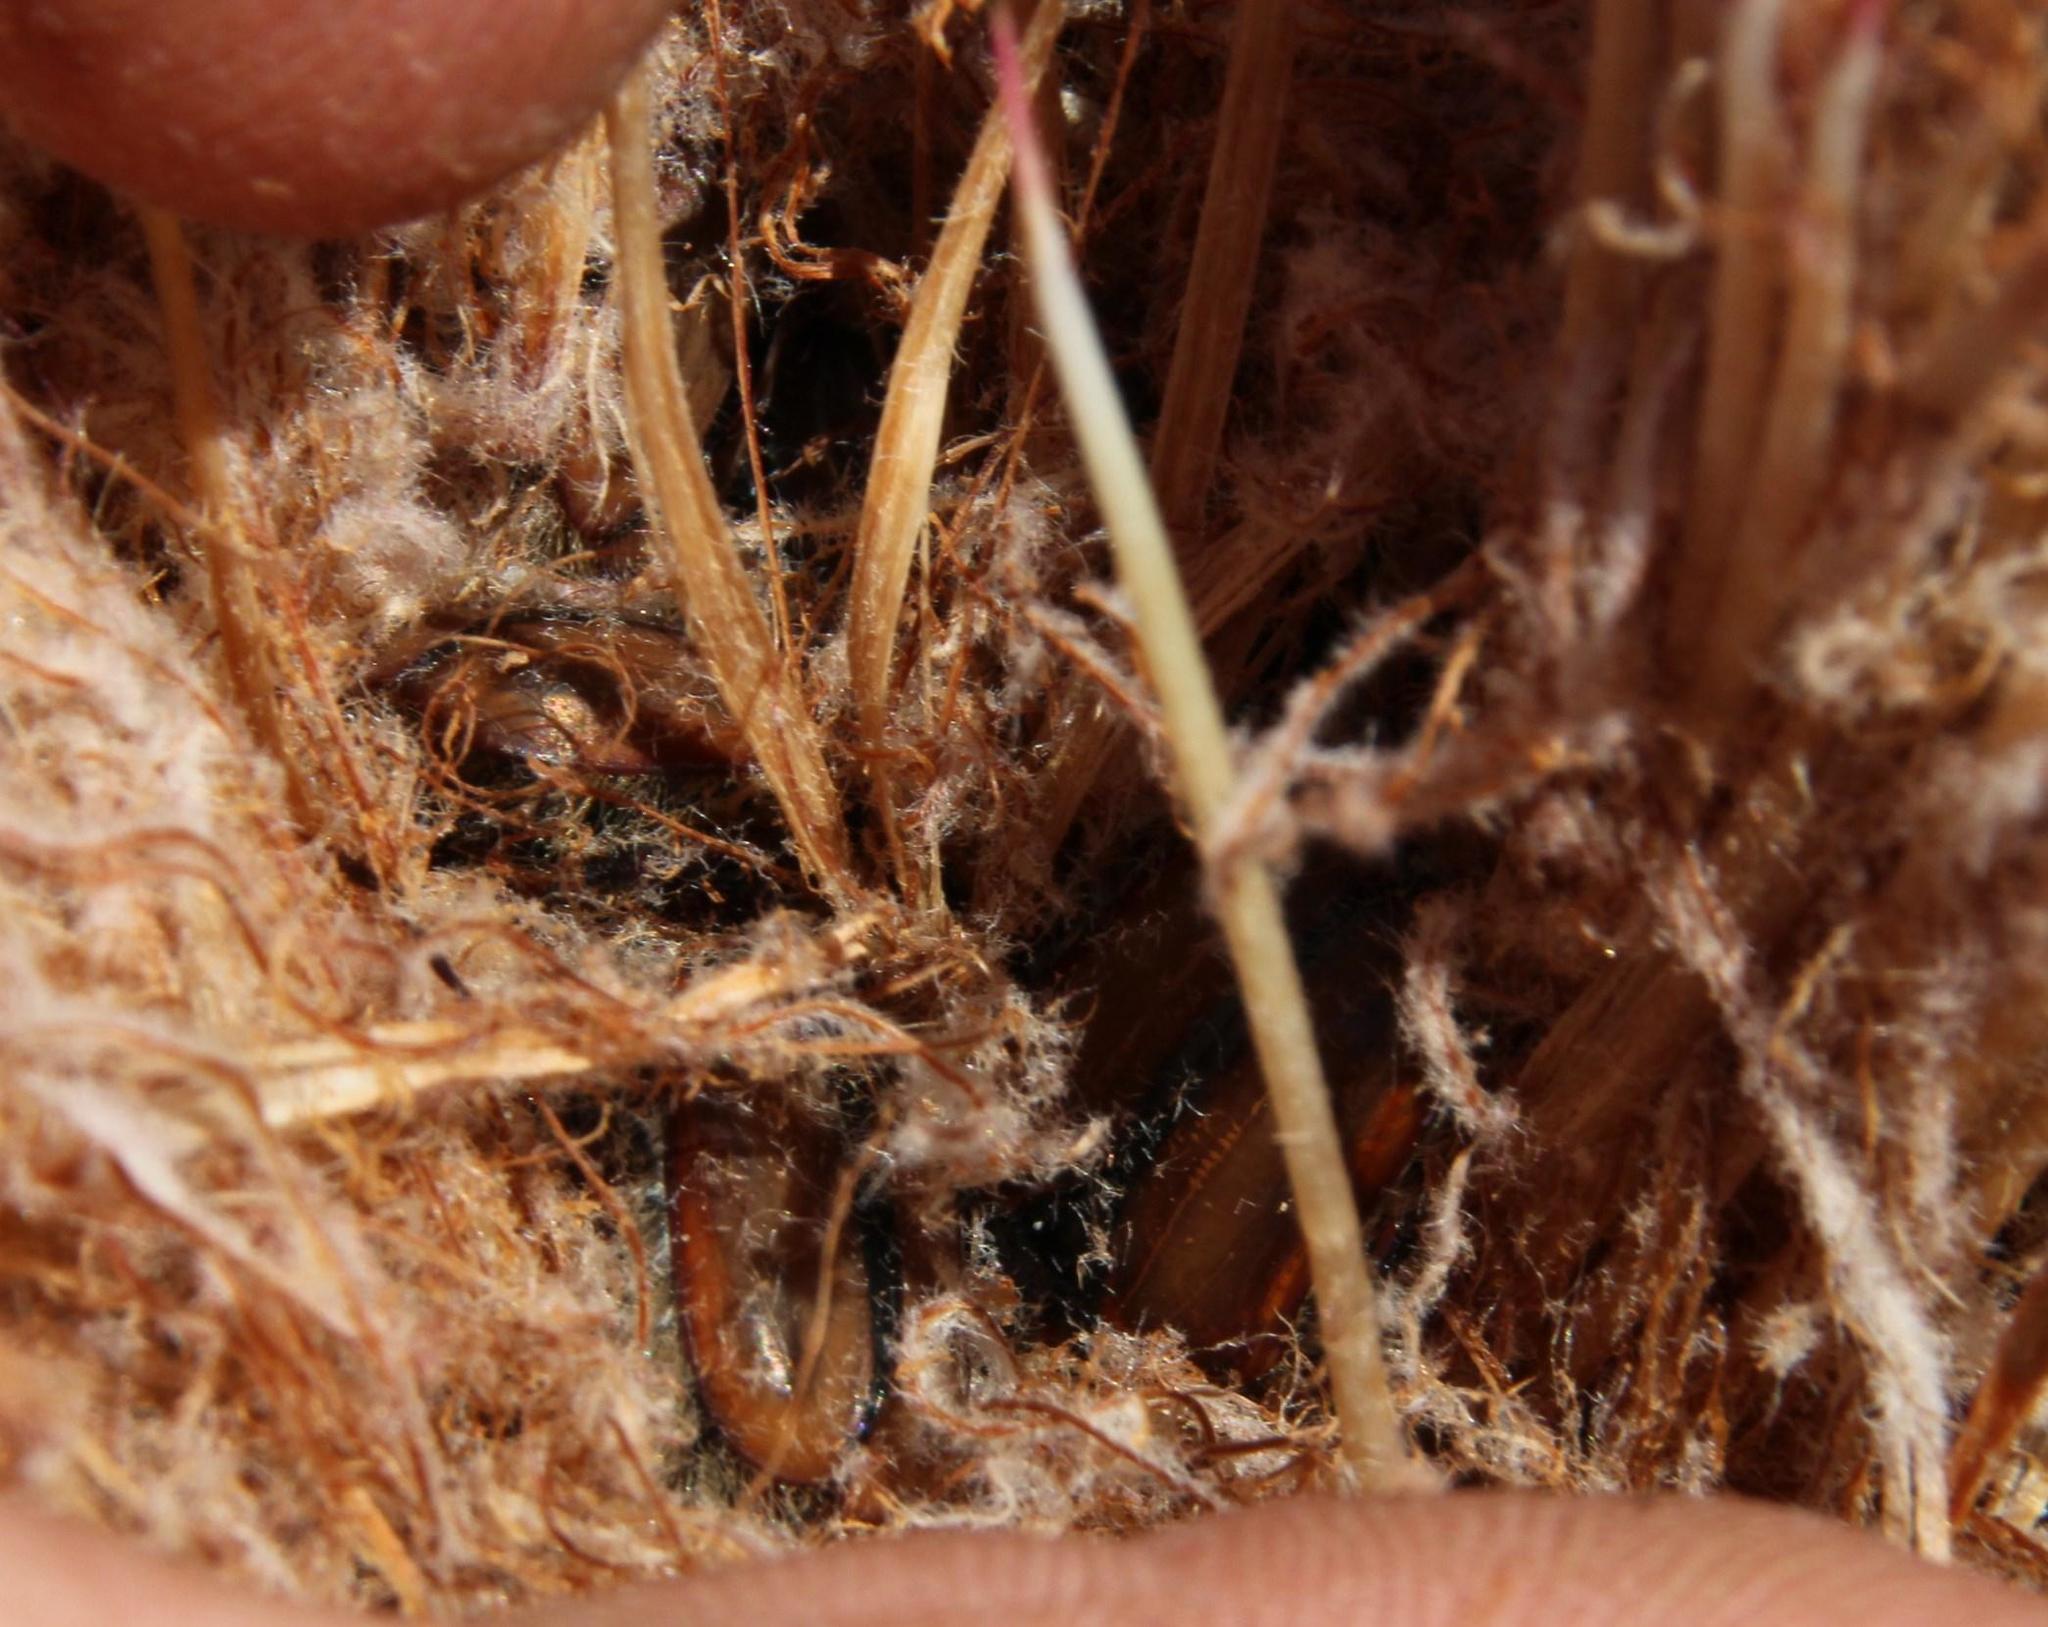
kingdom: Animalia
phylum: Arthropoda
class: Insecta
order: Coleoptera
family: Scarabaeidae
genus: Trichostetha
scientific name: Trichostetha capensis
